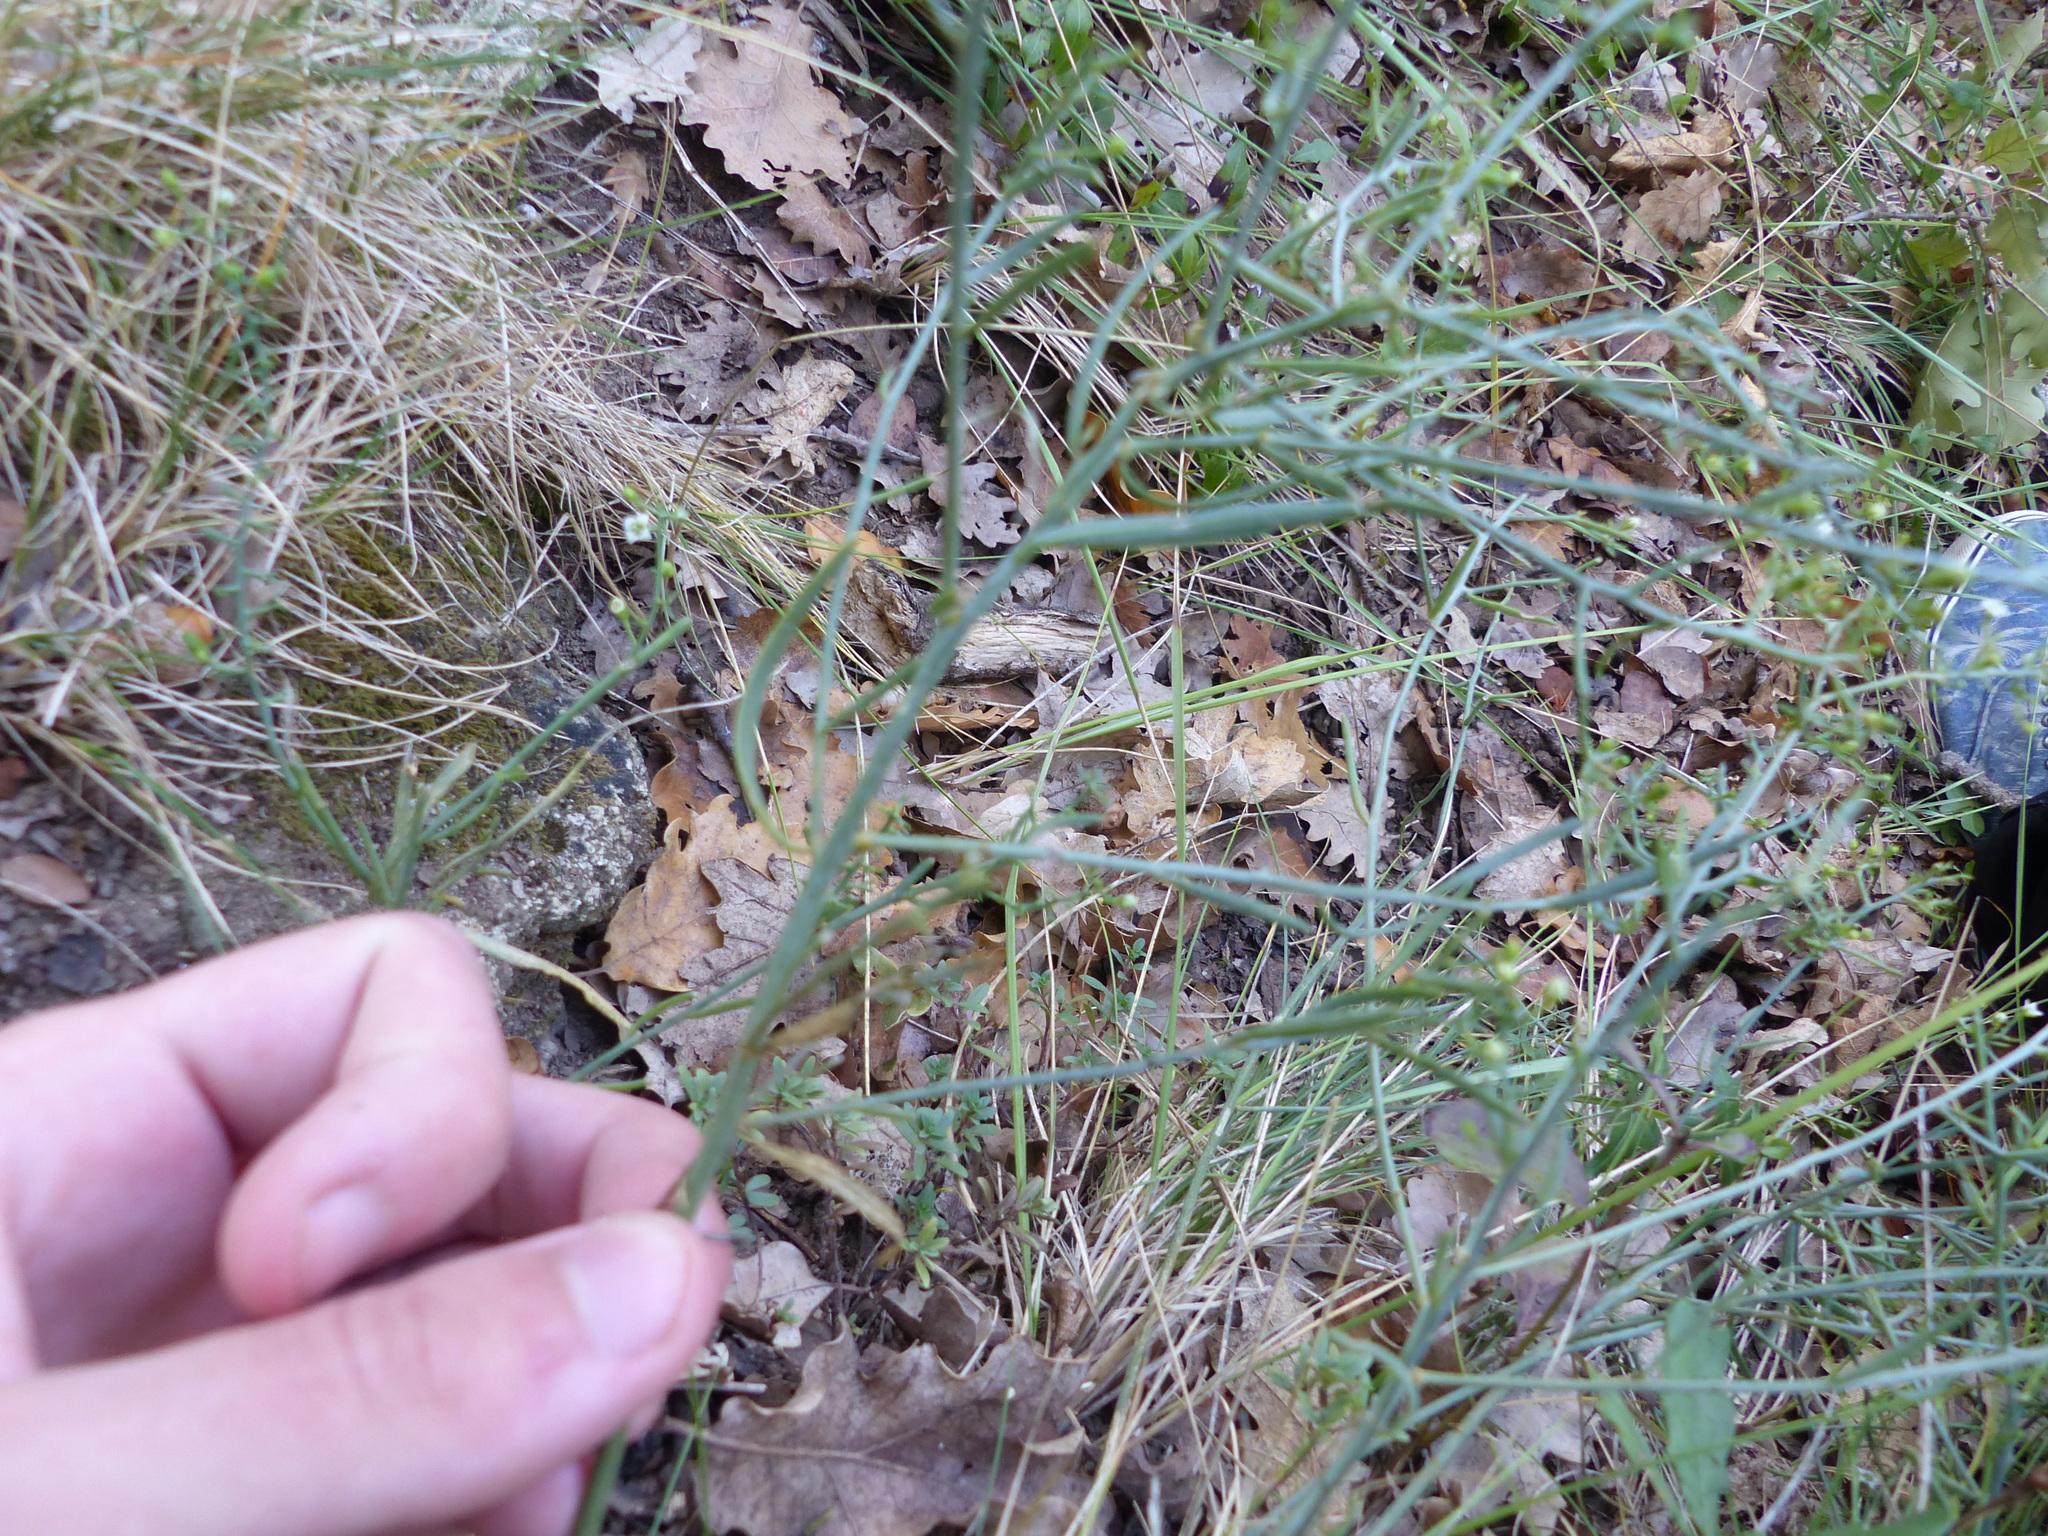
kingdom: Plantae
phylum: Tracheophyta
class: Magnoliopsida
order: Santalales
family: Thesiaceae
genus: Thesium
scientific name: Thesium divaricatum
